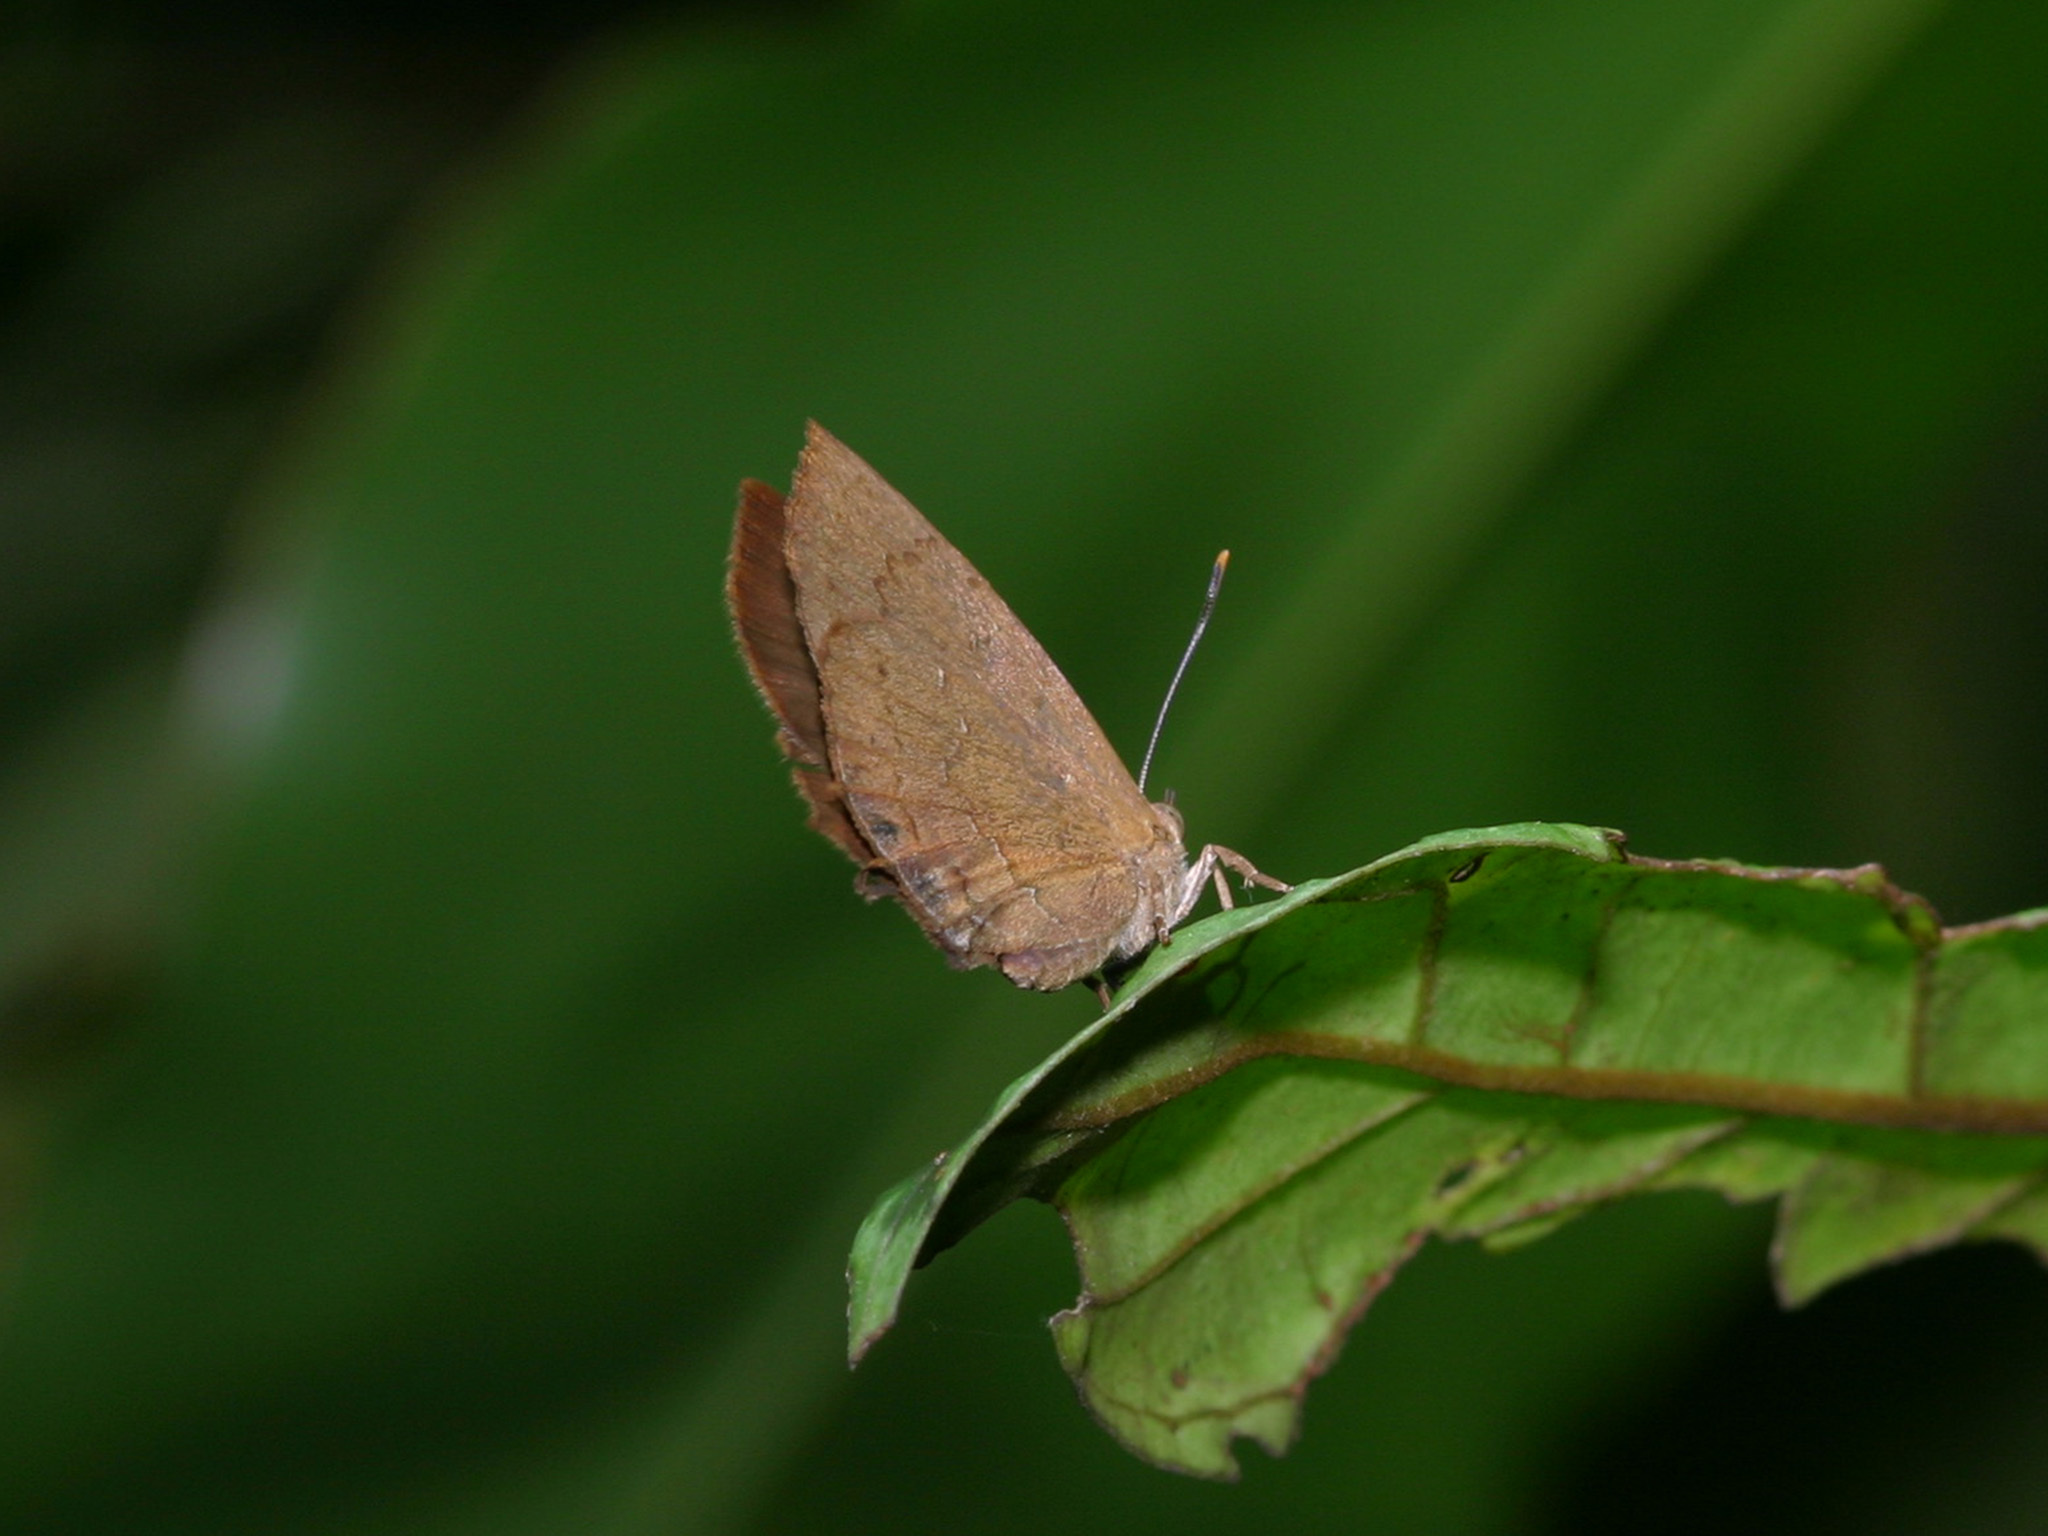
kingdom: Animalia
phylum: Arthropoda
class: Insecta
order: Lepidoptera
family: Lycaenidae
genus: Surendra
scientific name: Surendra vivarna
